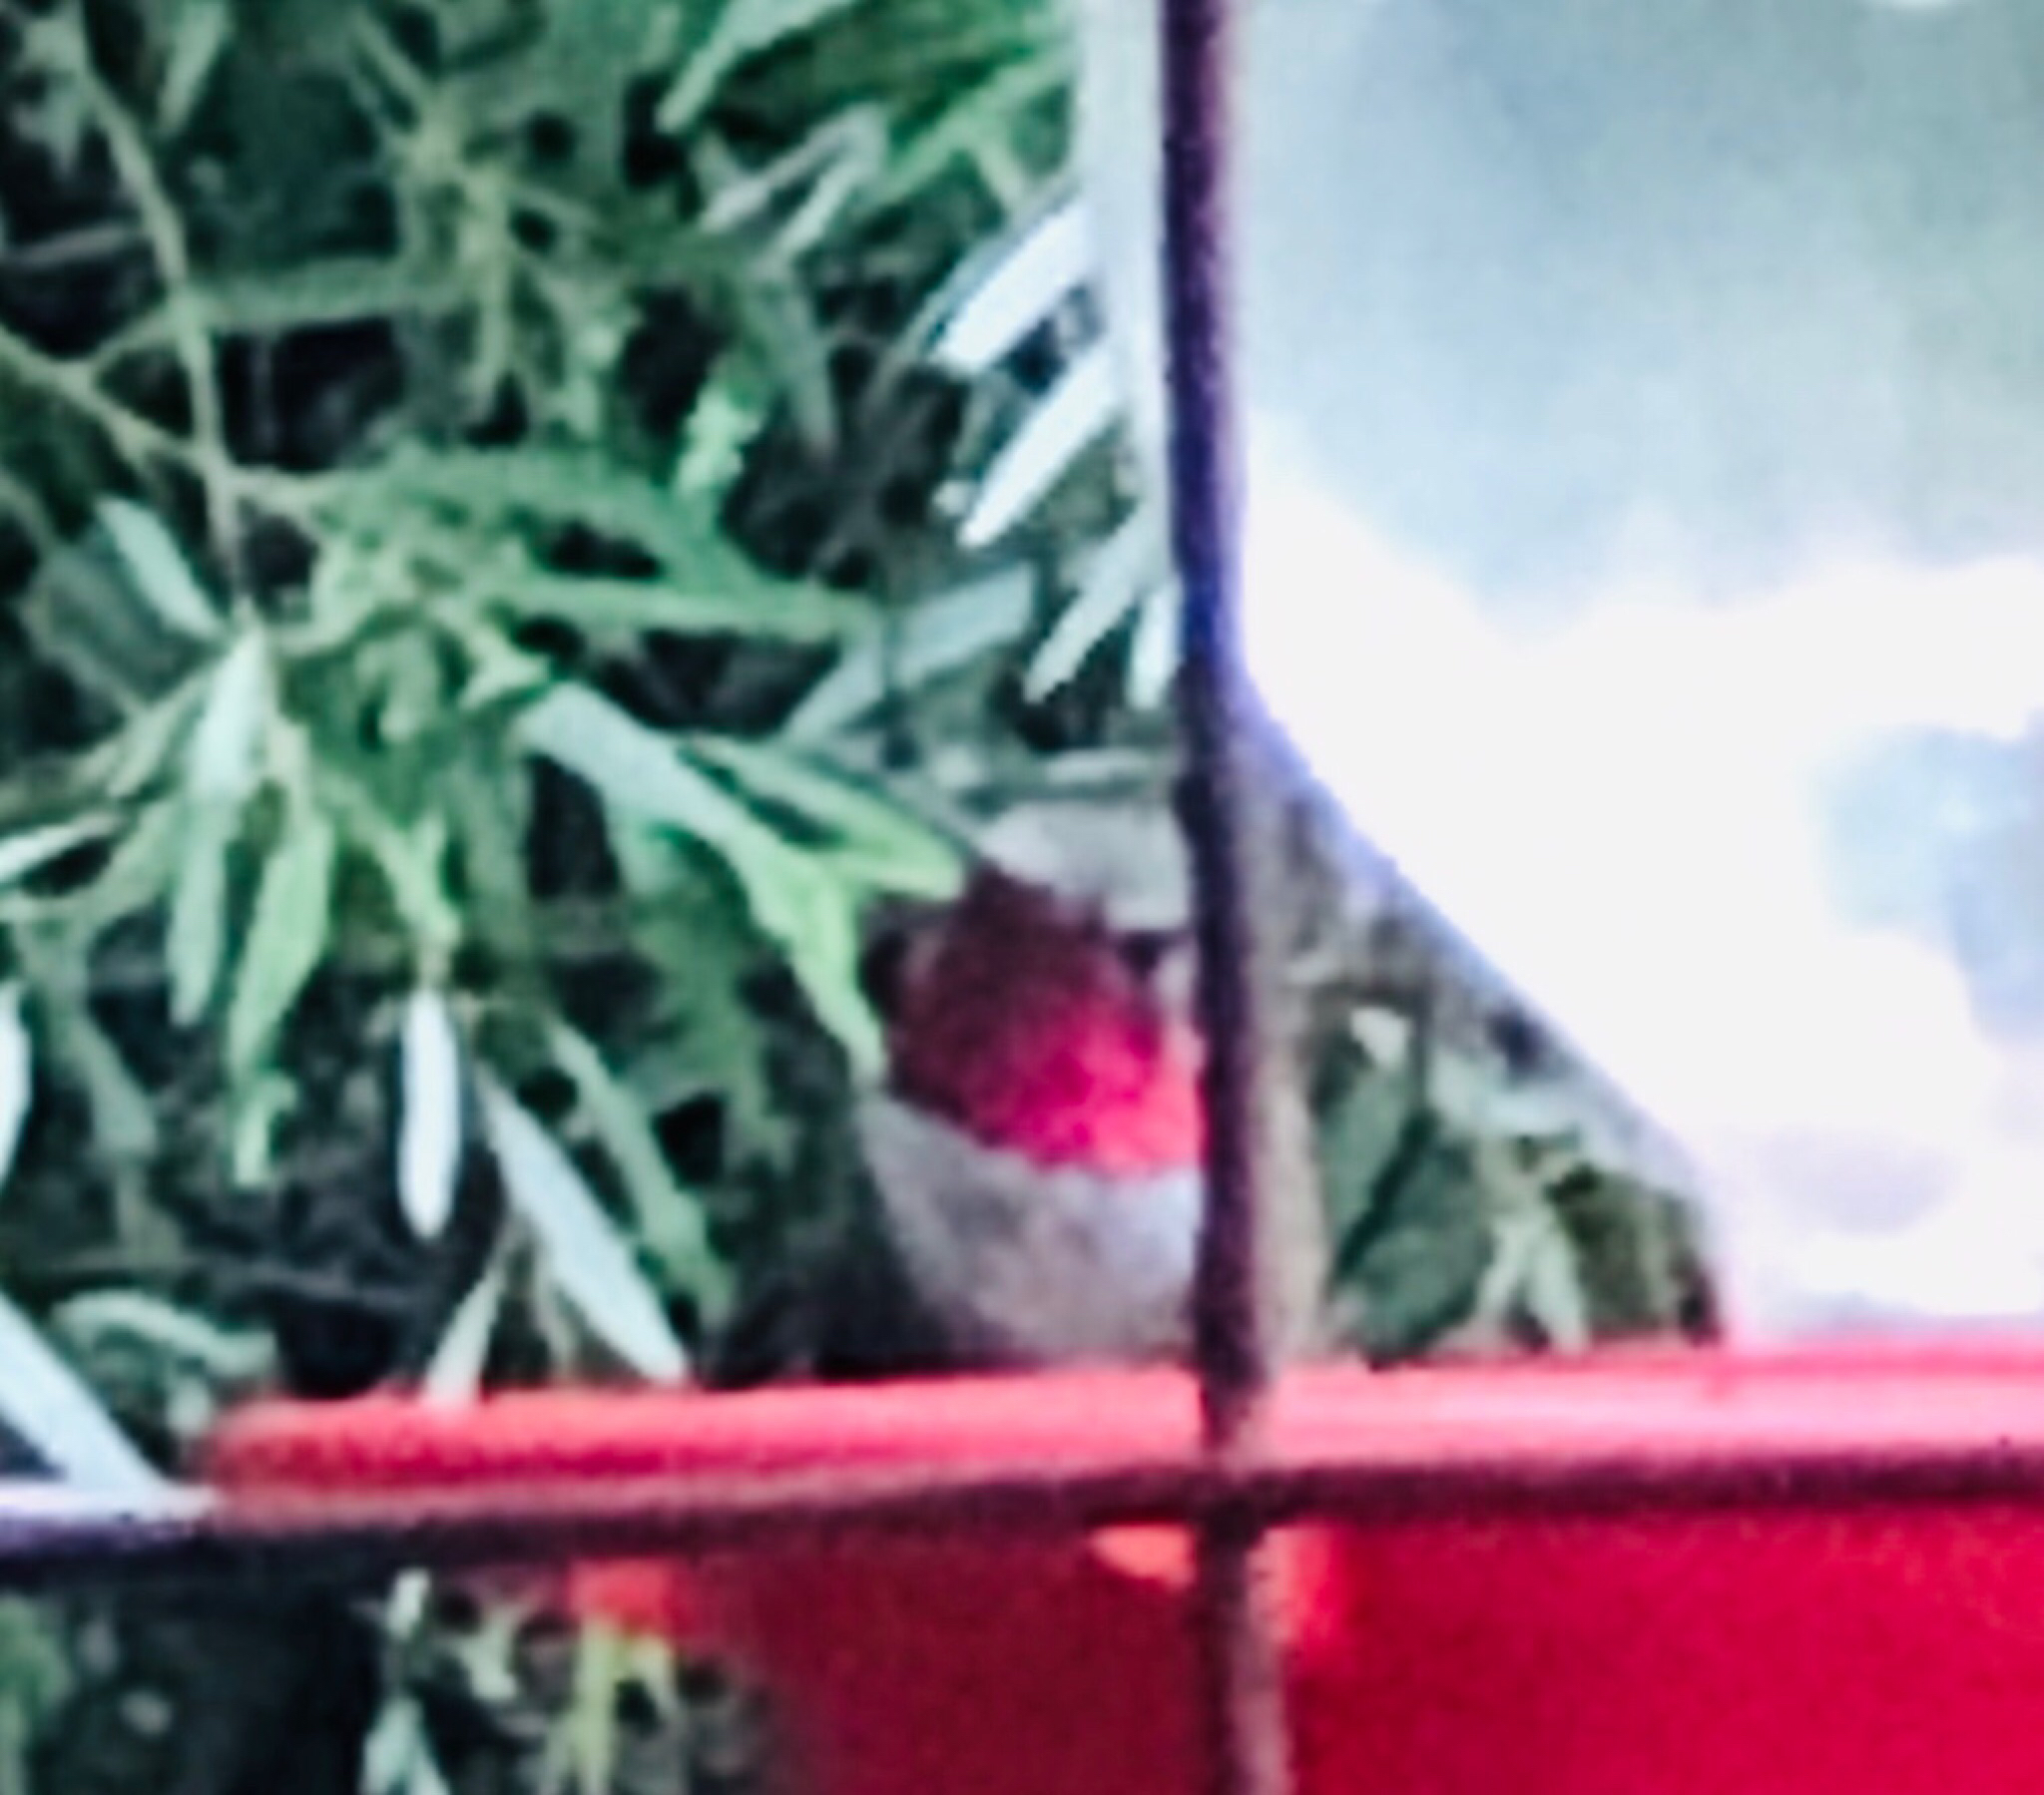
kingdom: Animalia
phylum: Chordata
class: Aves
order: Apodiformes
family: Trochilidae
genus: Selasphorus
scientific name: Selasphorus platycercus
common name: Broad-tailed hummingbird
